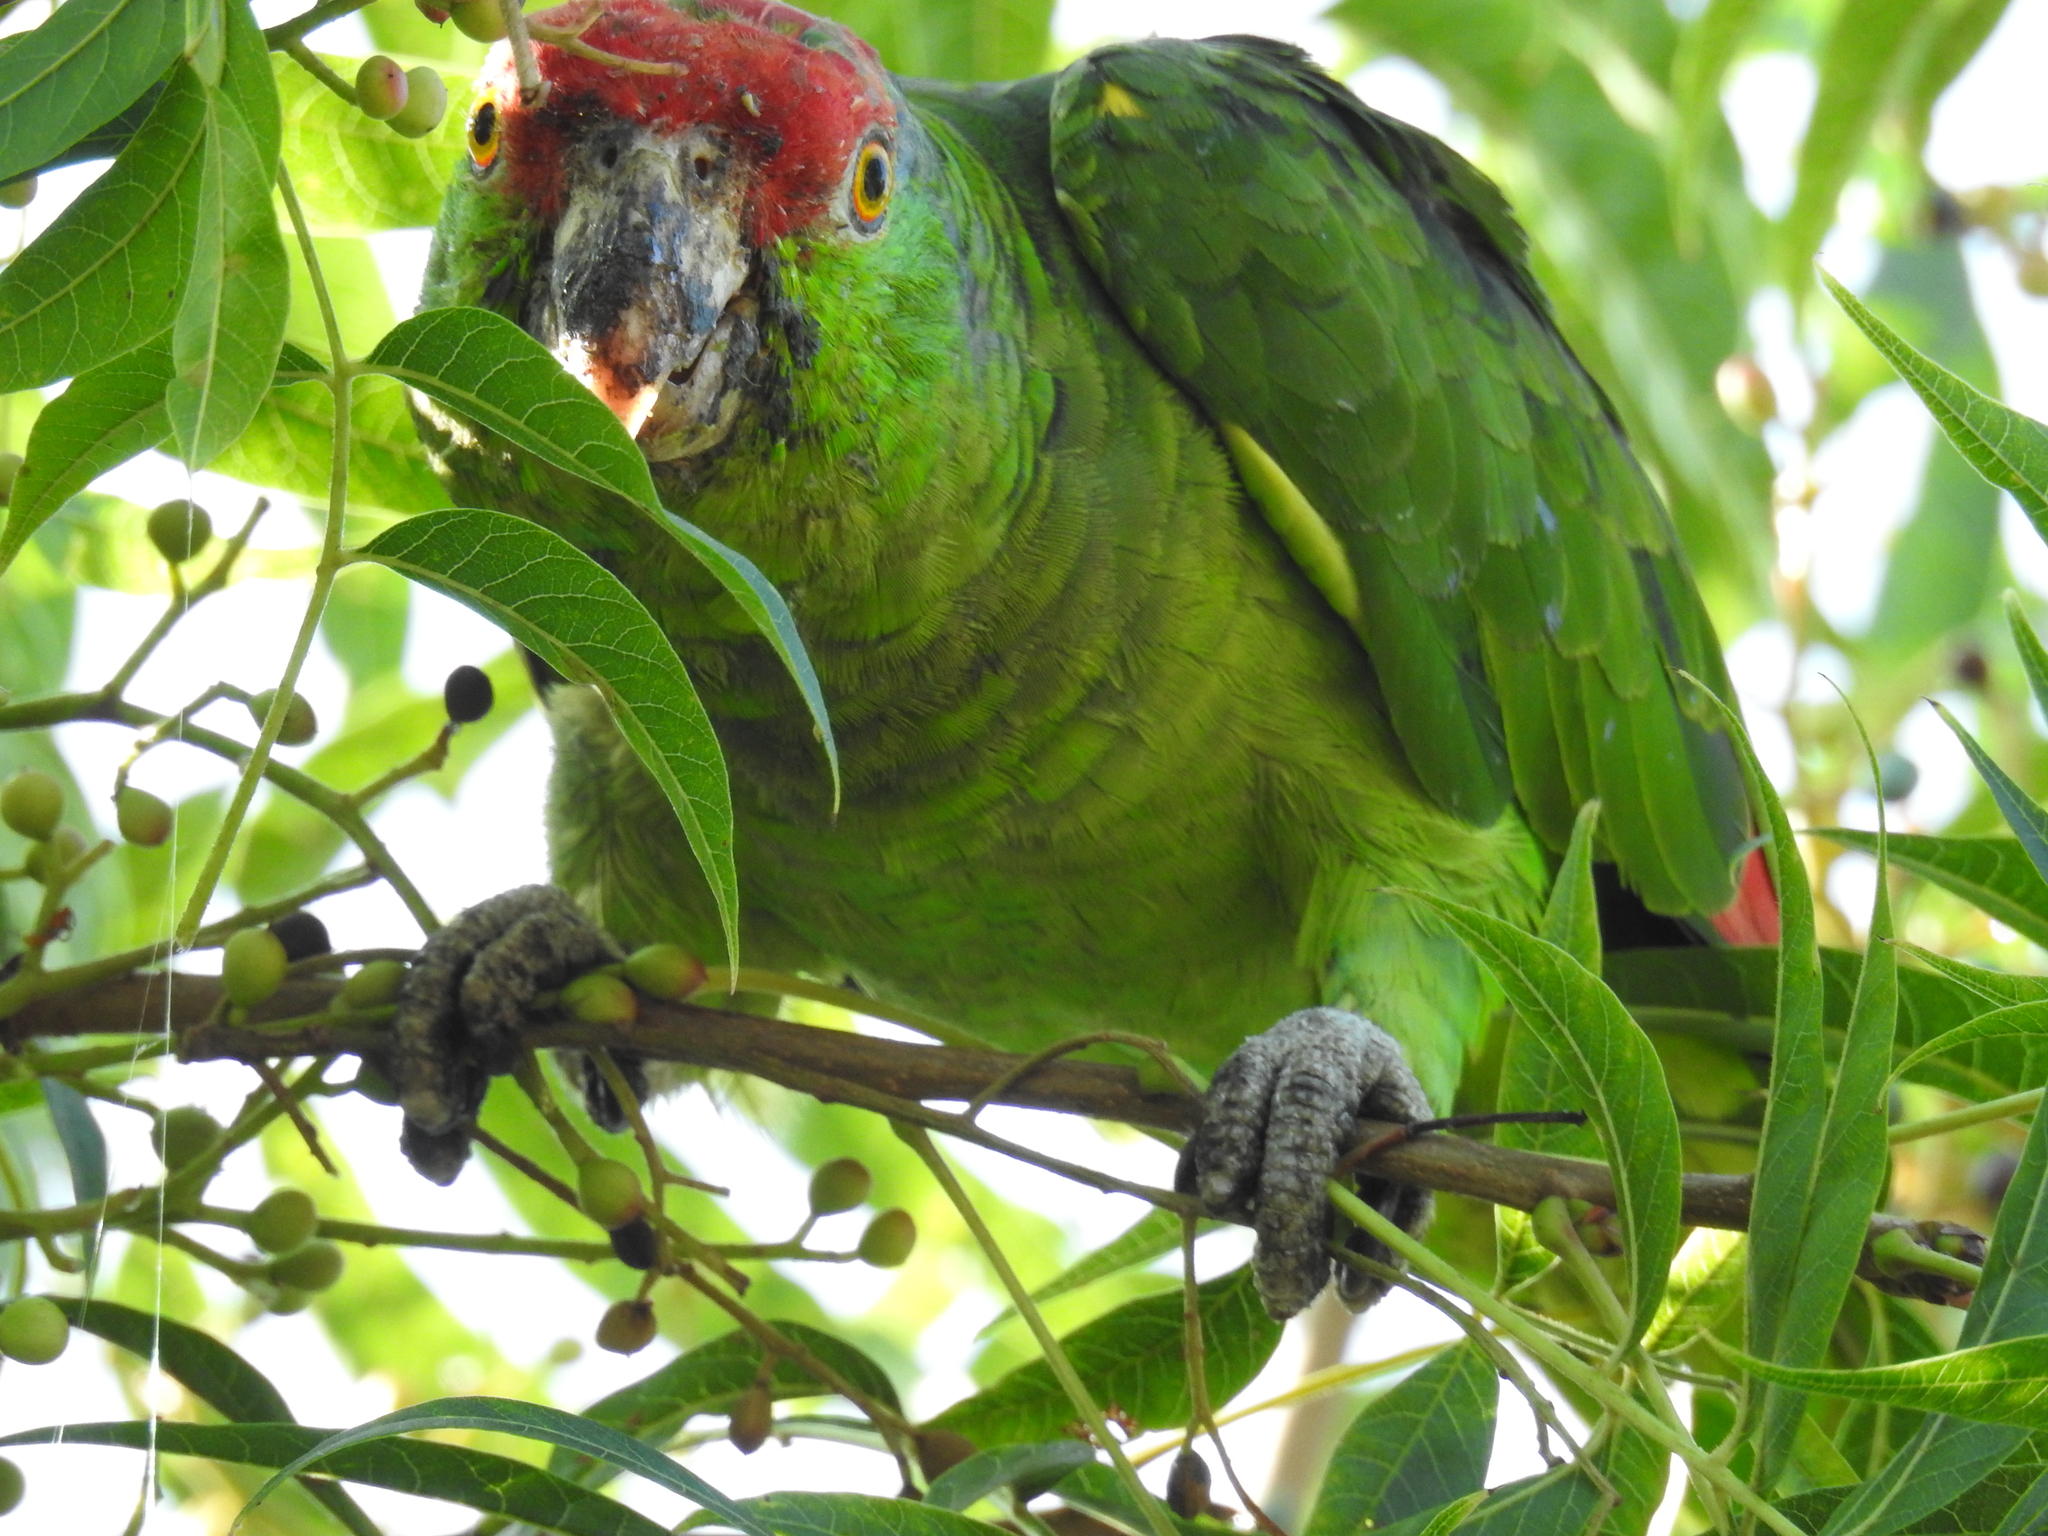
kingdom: Animalia
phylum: Chordata
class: Aves
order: Psittaciformes
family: Psittacidae
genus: Amazona
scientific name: Amazona viridigenalis
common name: Red-crowned amazon
